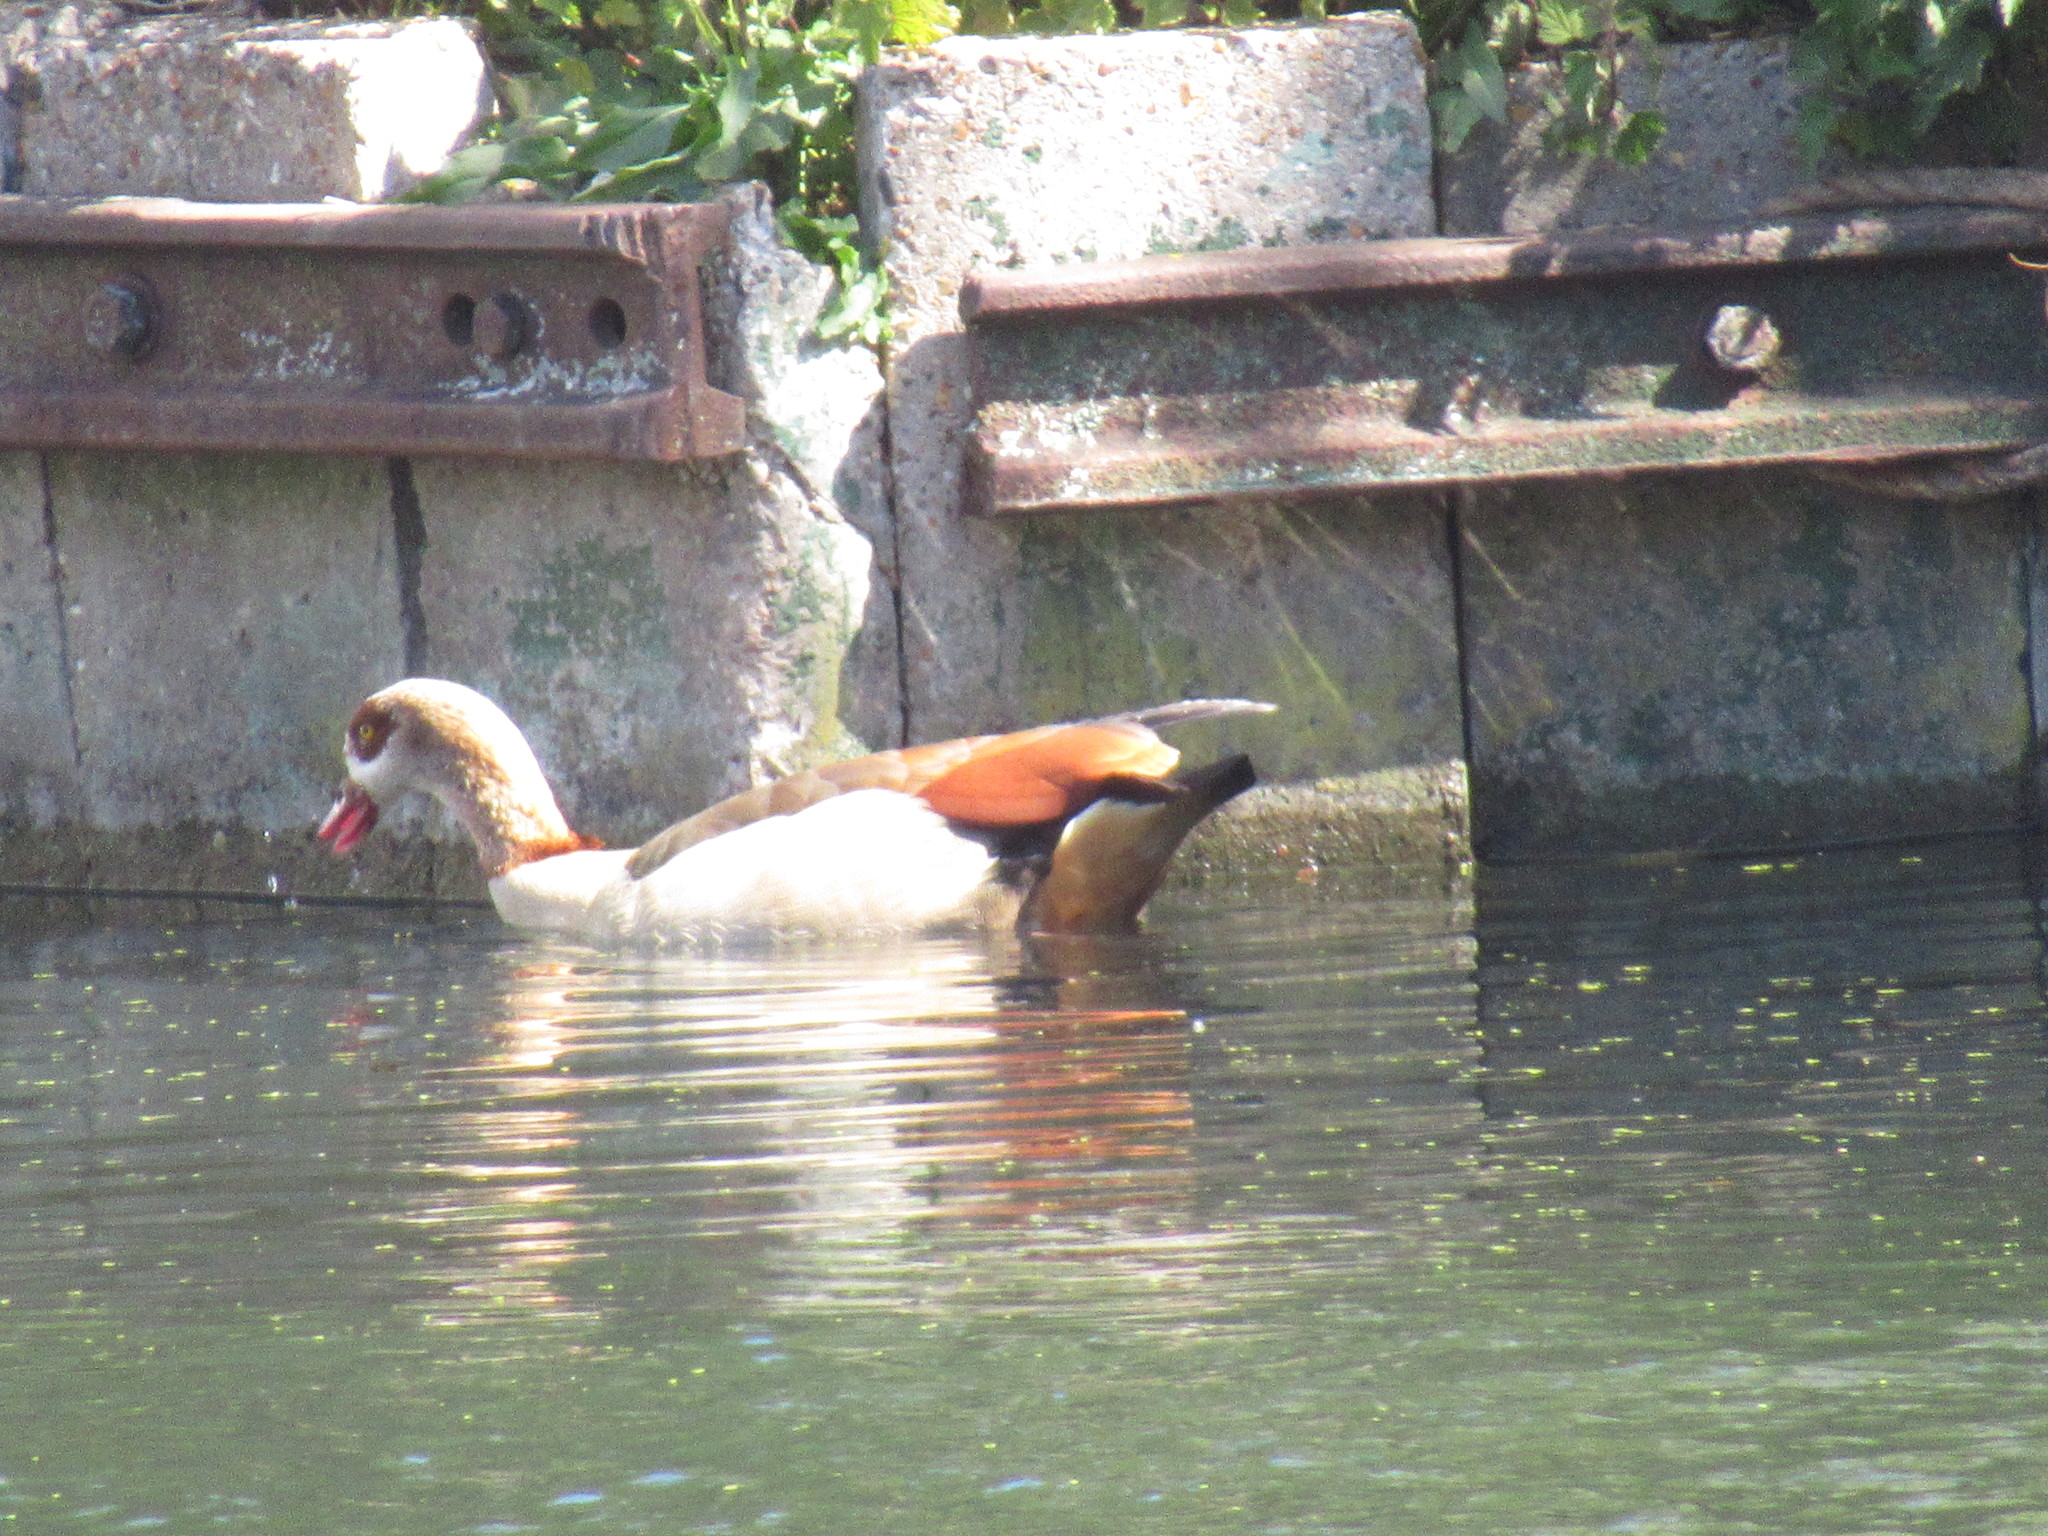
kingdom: Animalia
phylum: Chordata
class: Aves
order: Anseriformes
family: Anatidae
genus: Alopochen
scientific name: Alopochen aegyptiaca
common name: Egyptian goose
